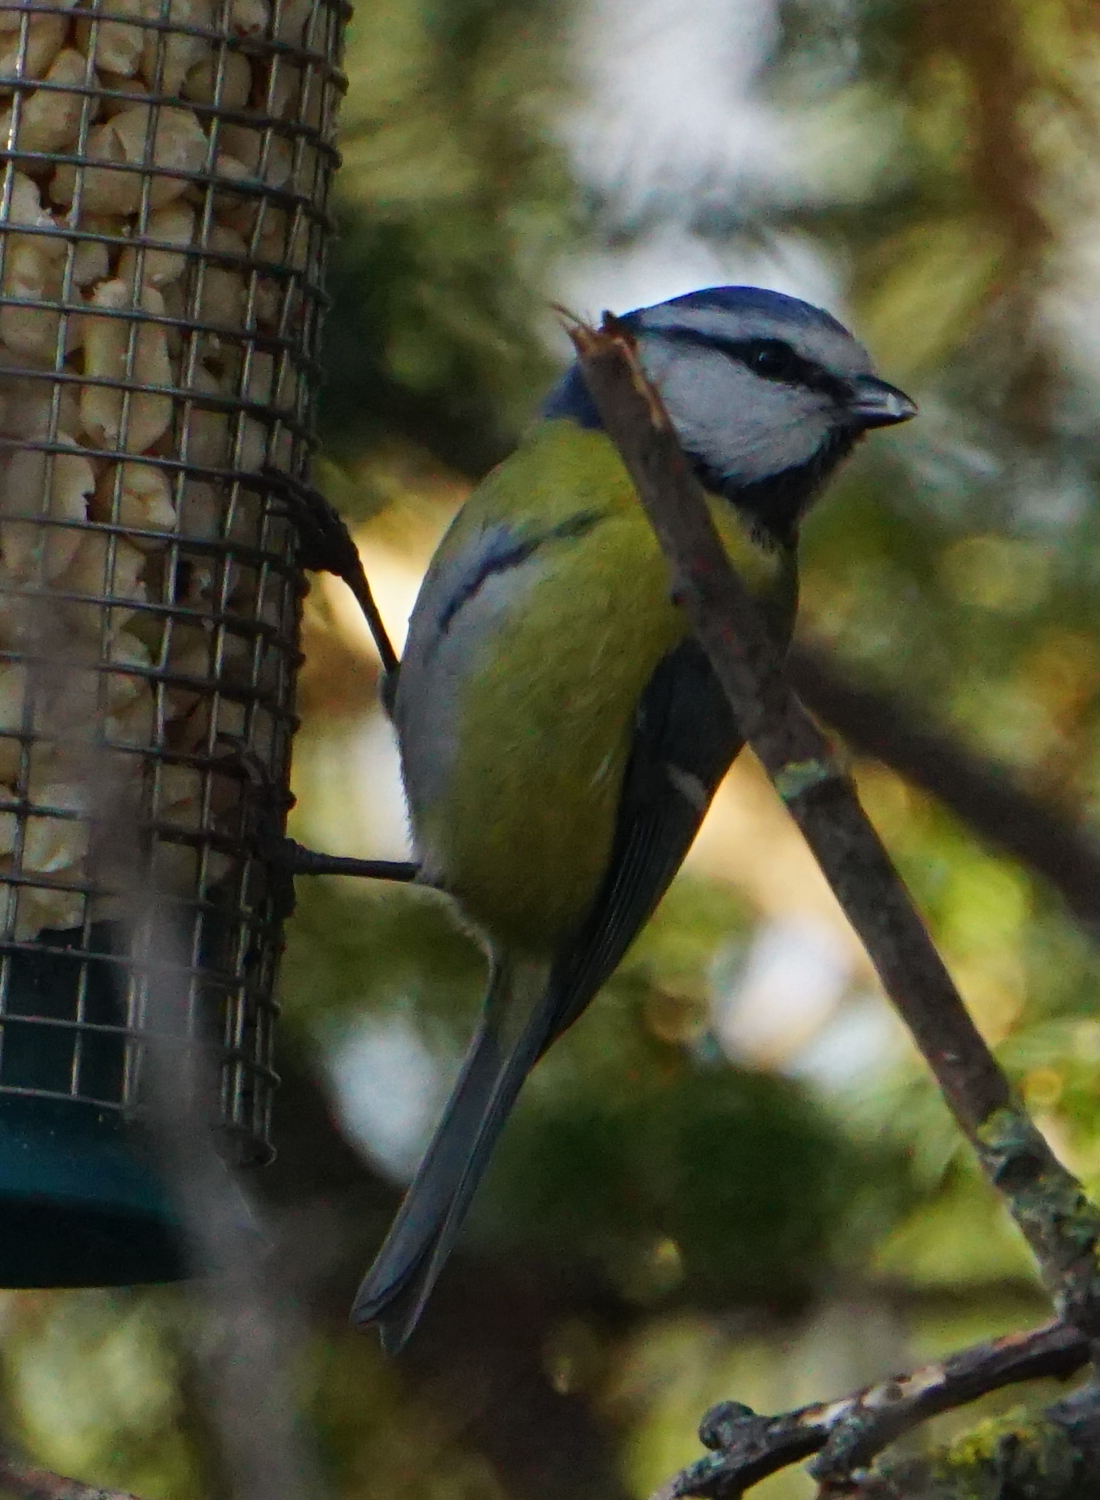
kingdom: Animalia
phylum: Chordata
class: Aves
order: Passeriformes
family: Paridae
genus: Cyanistes
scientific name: Cyanistes caeruleus
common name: Eurasian blue tit
